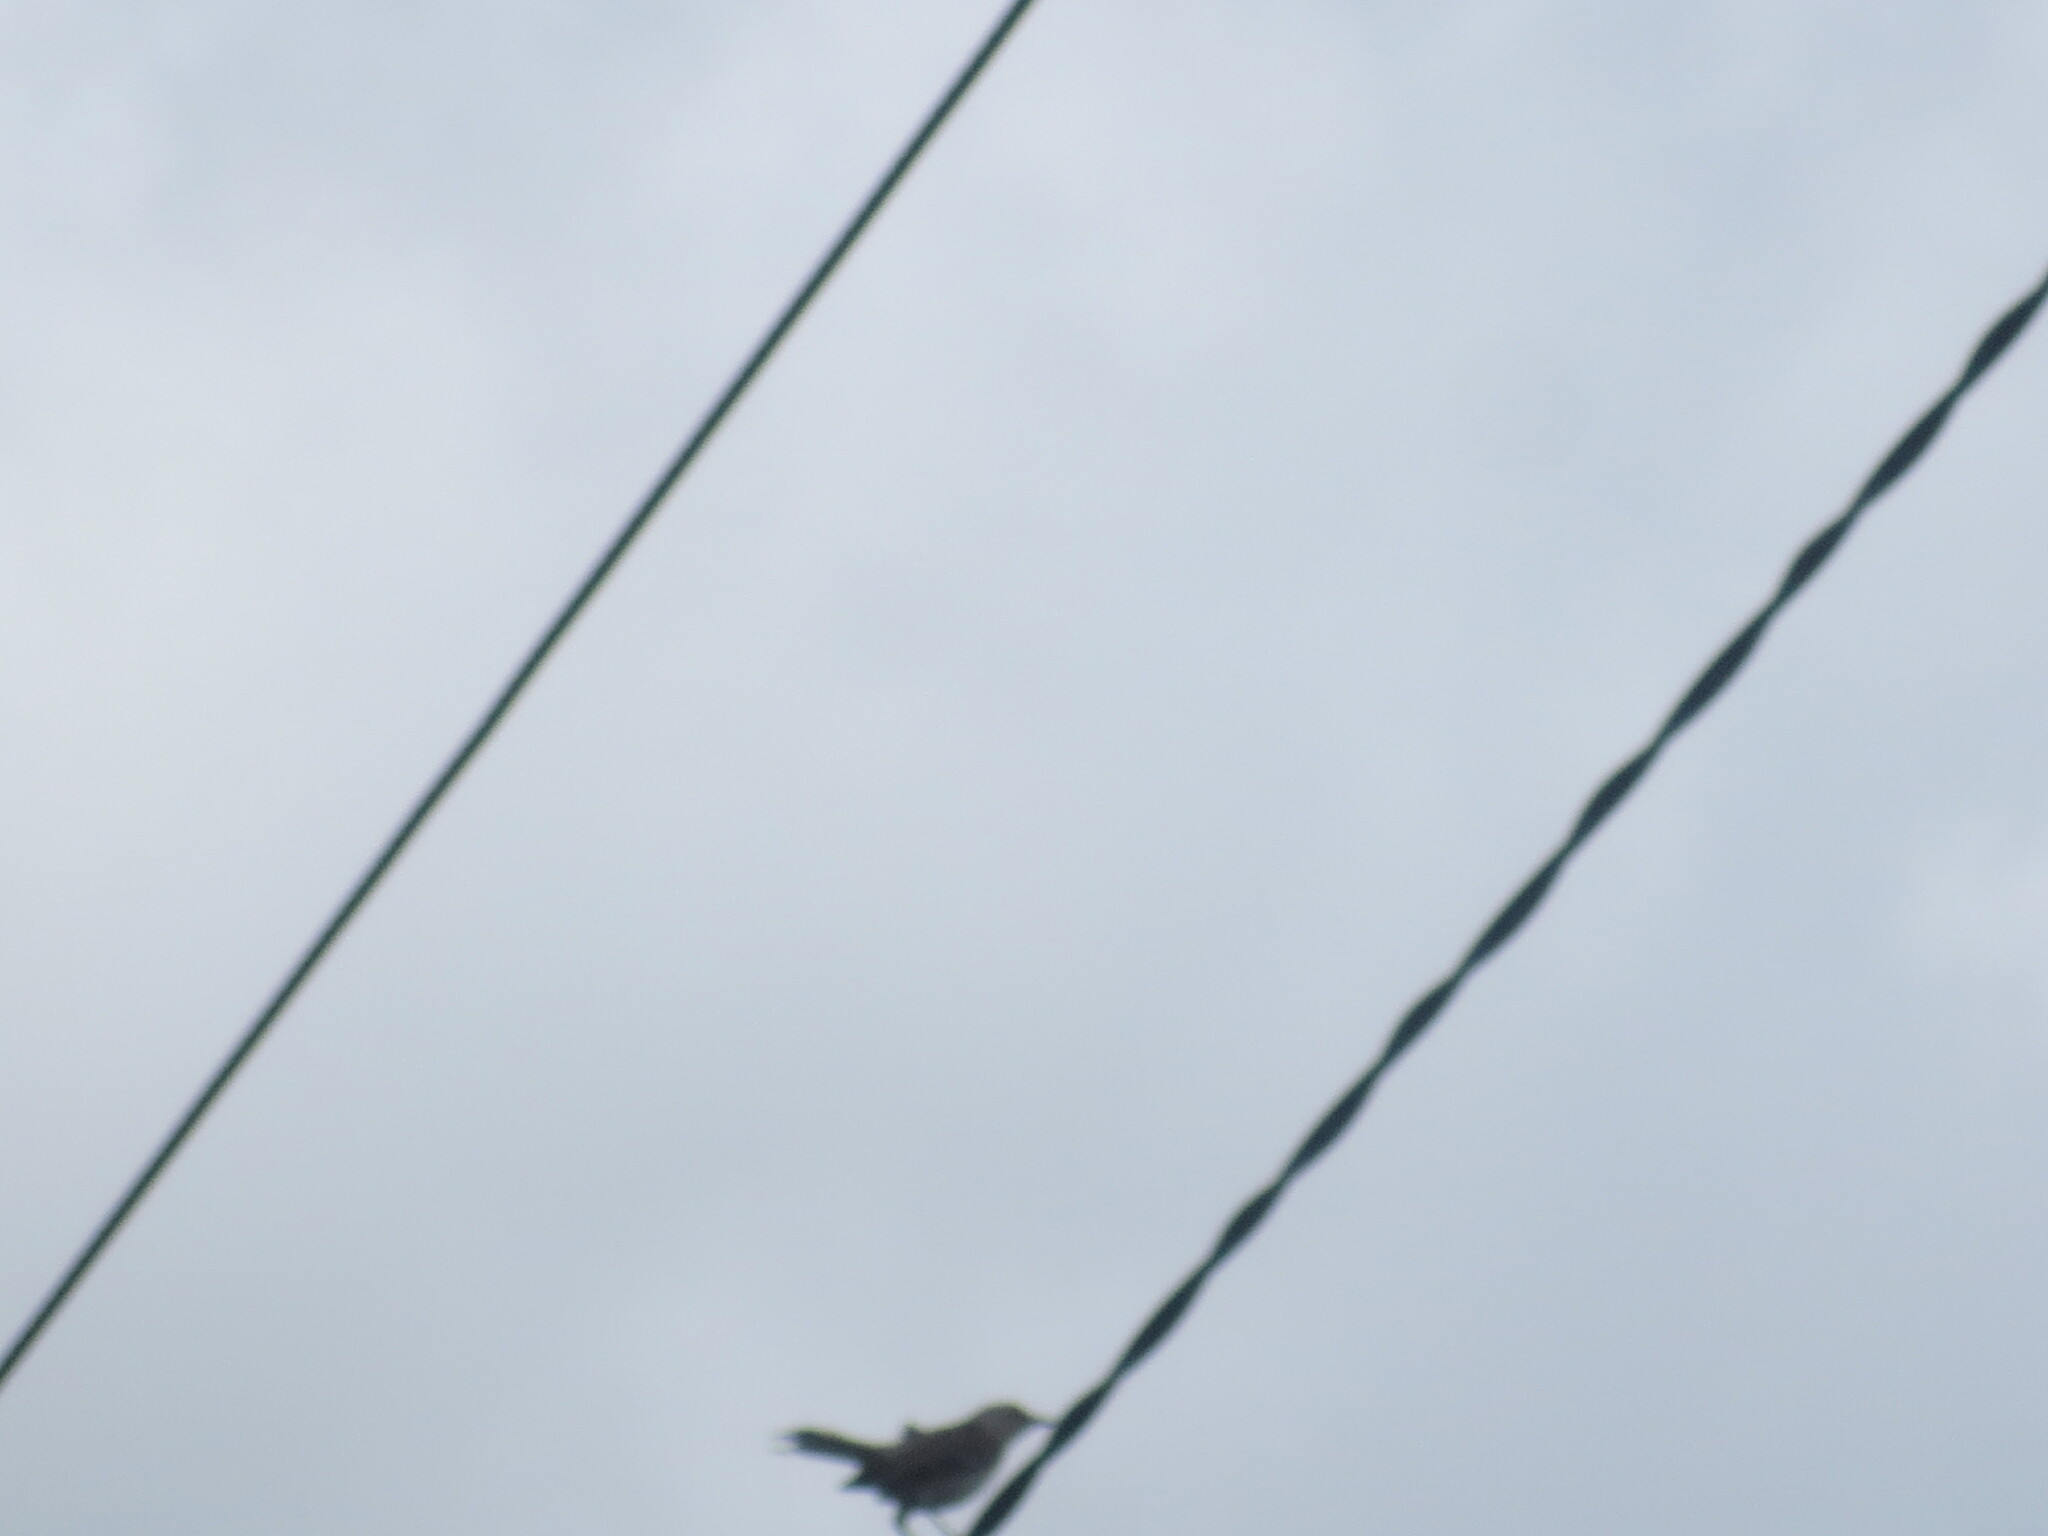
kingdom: Animalia
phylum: Chordata
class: Aves
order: Passeriformes
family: Mimidae
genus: Mimus
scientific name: Mimus polyglottos
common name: Northern mockingbird
